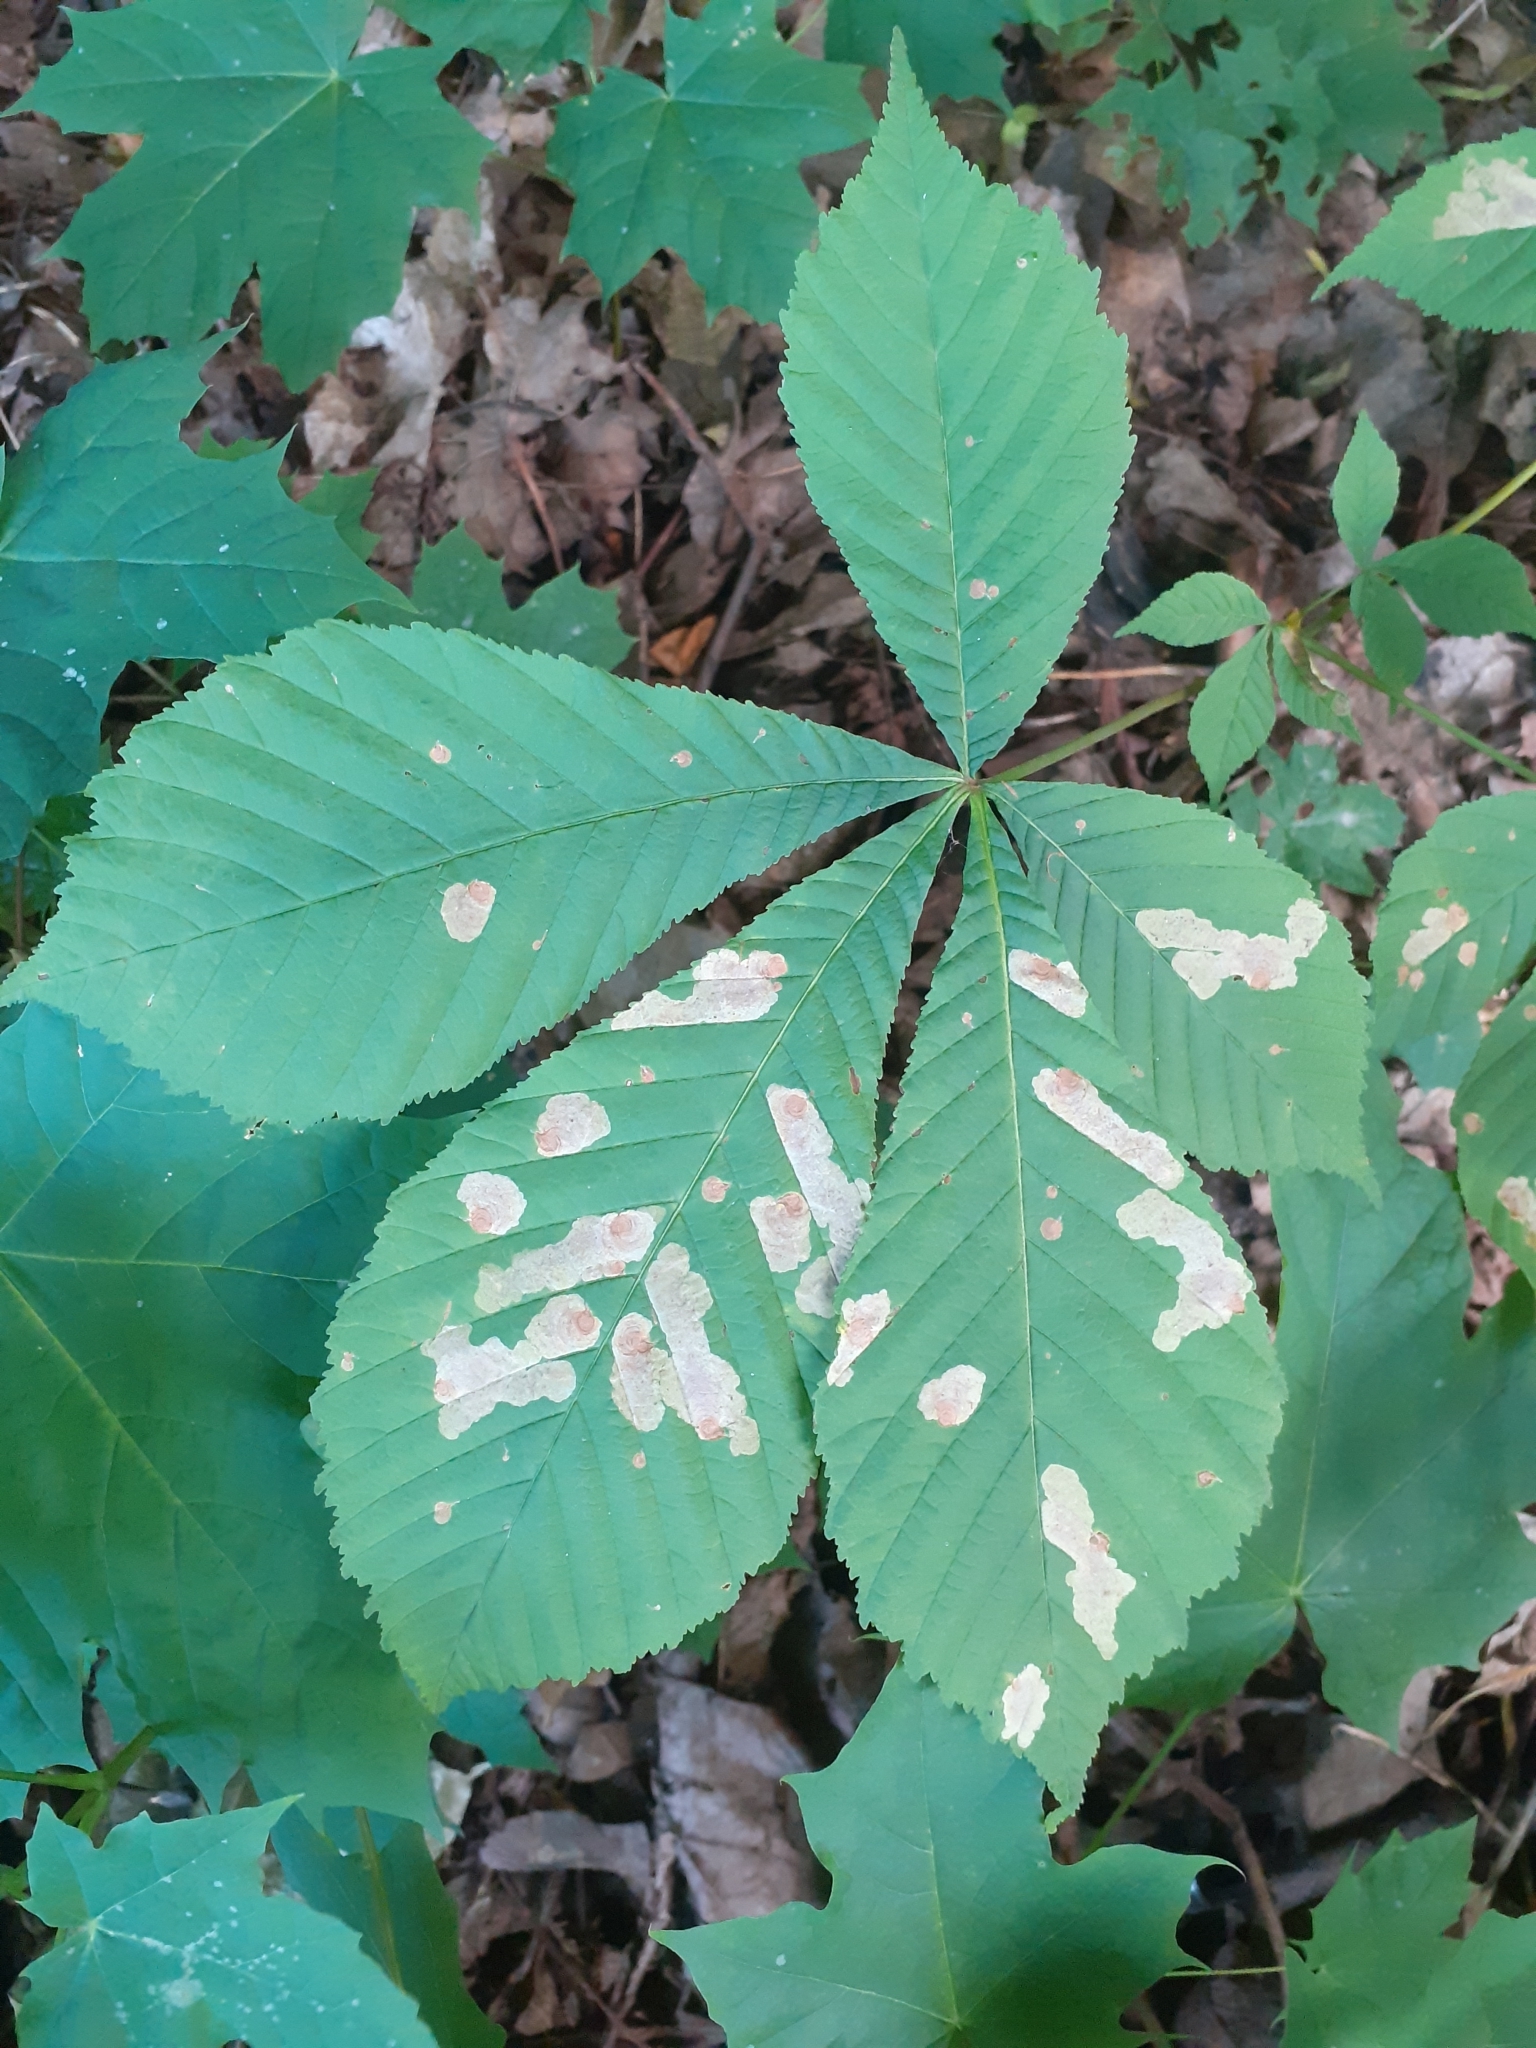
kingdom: Animalia
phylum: Arthropoda
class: Insecta
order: Lepidoptera
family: Gracillariidae
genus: Cameraria
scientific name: Cameraria ohridella
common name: Horse-chestnut leaf-miner
